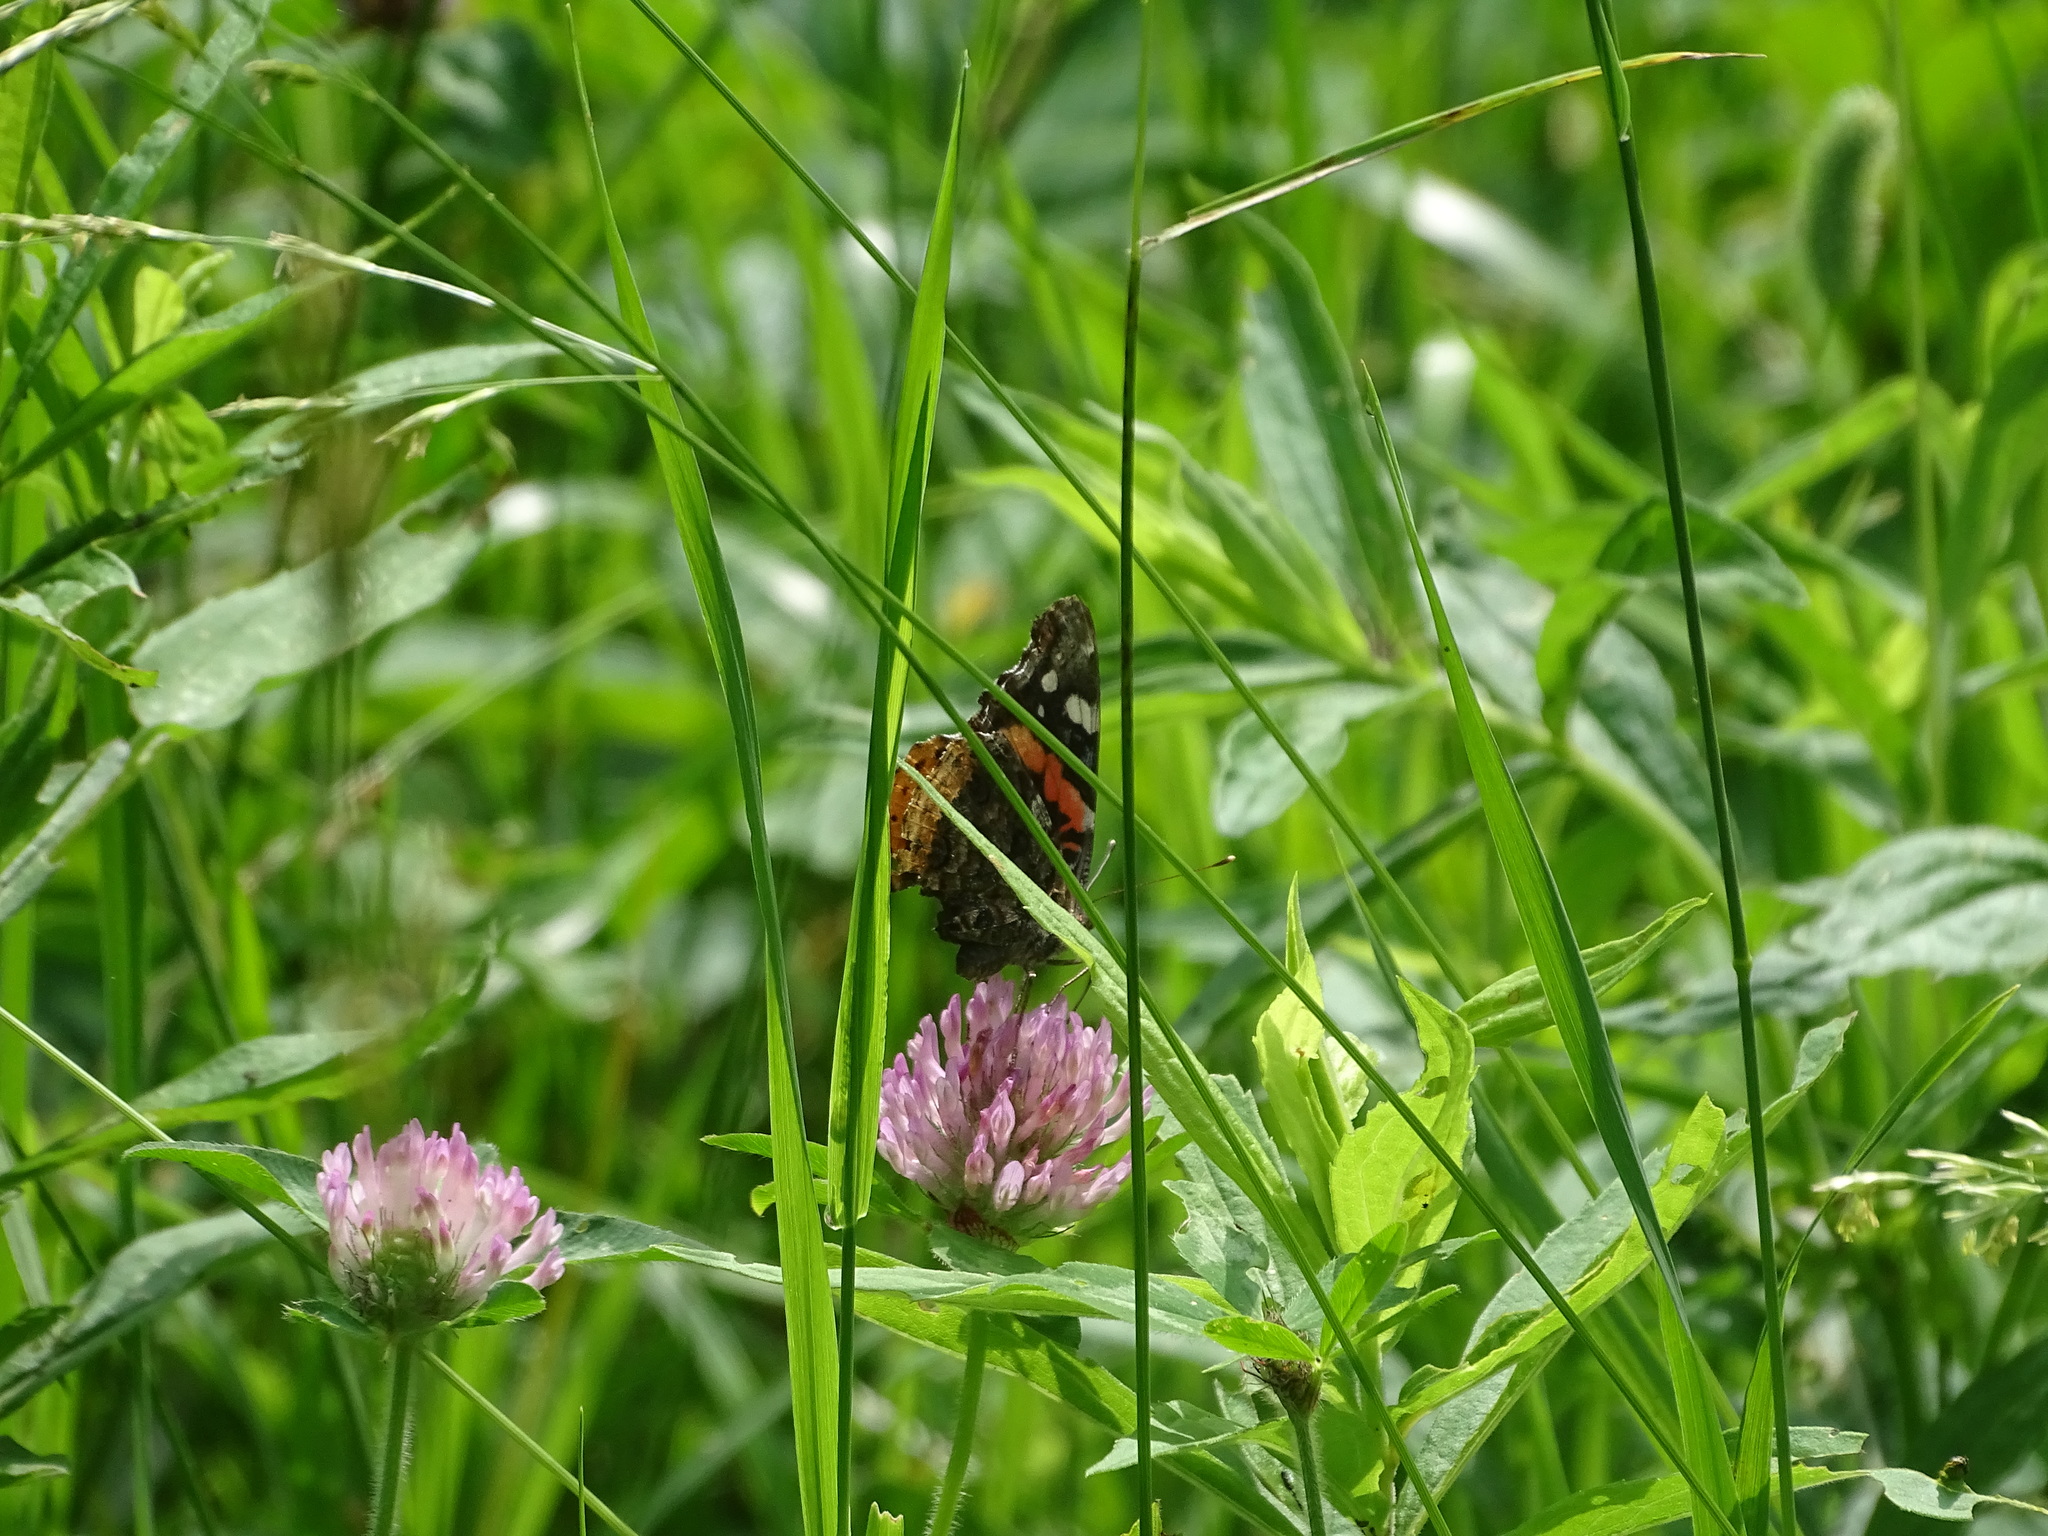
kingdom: Animalia
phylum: Arthropoda
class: Insecta
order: Lepidoptera
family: Nymphalidae
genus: Vanessa
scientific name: Vanessa atalanta
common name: Red admiral
